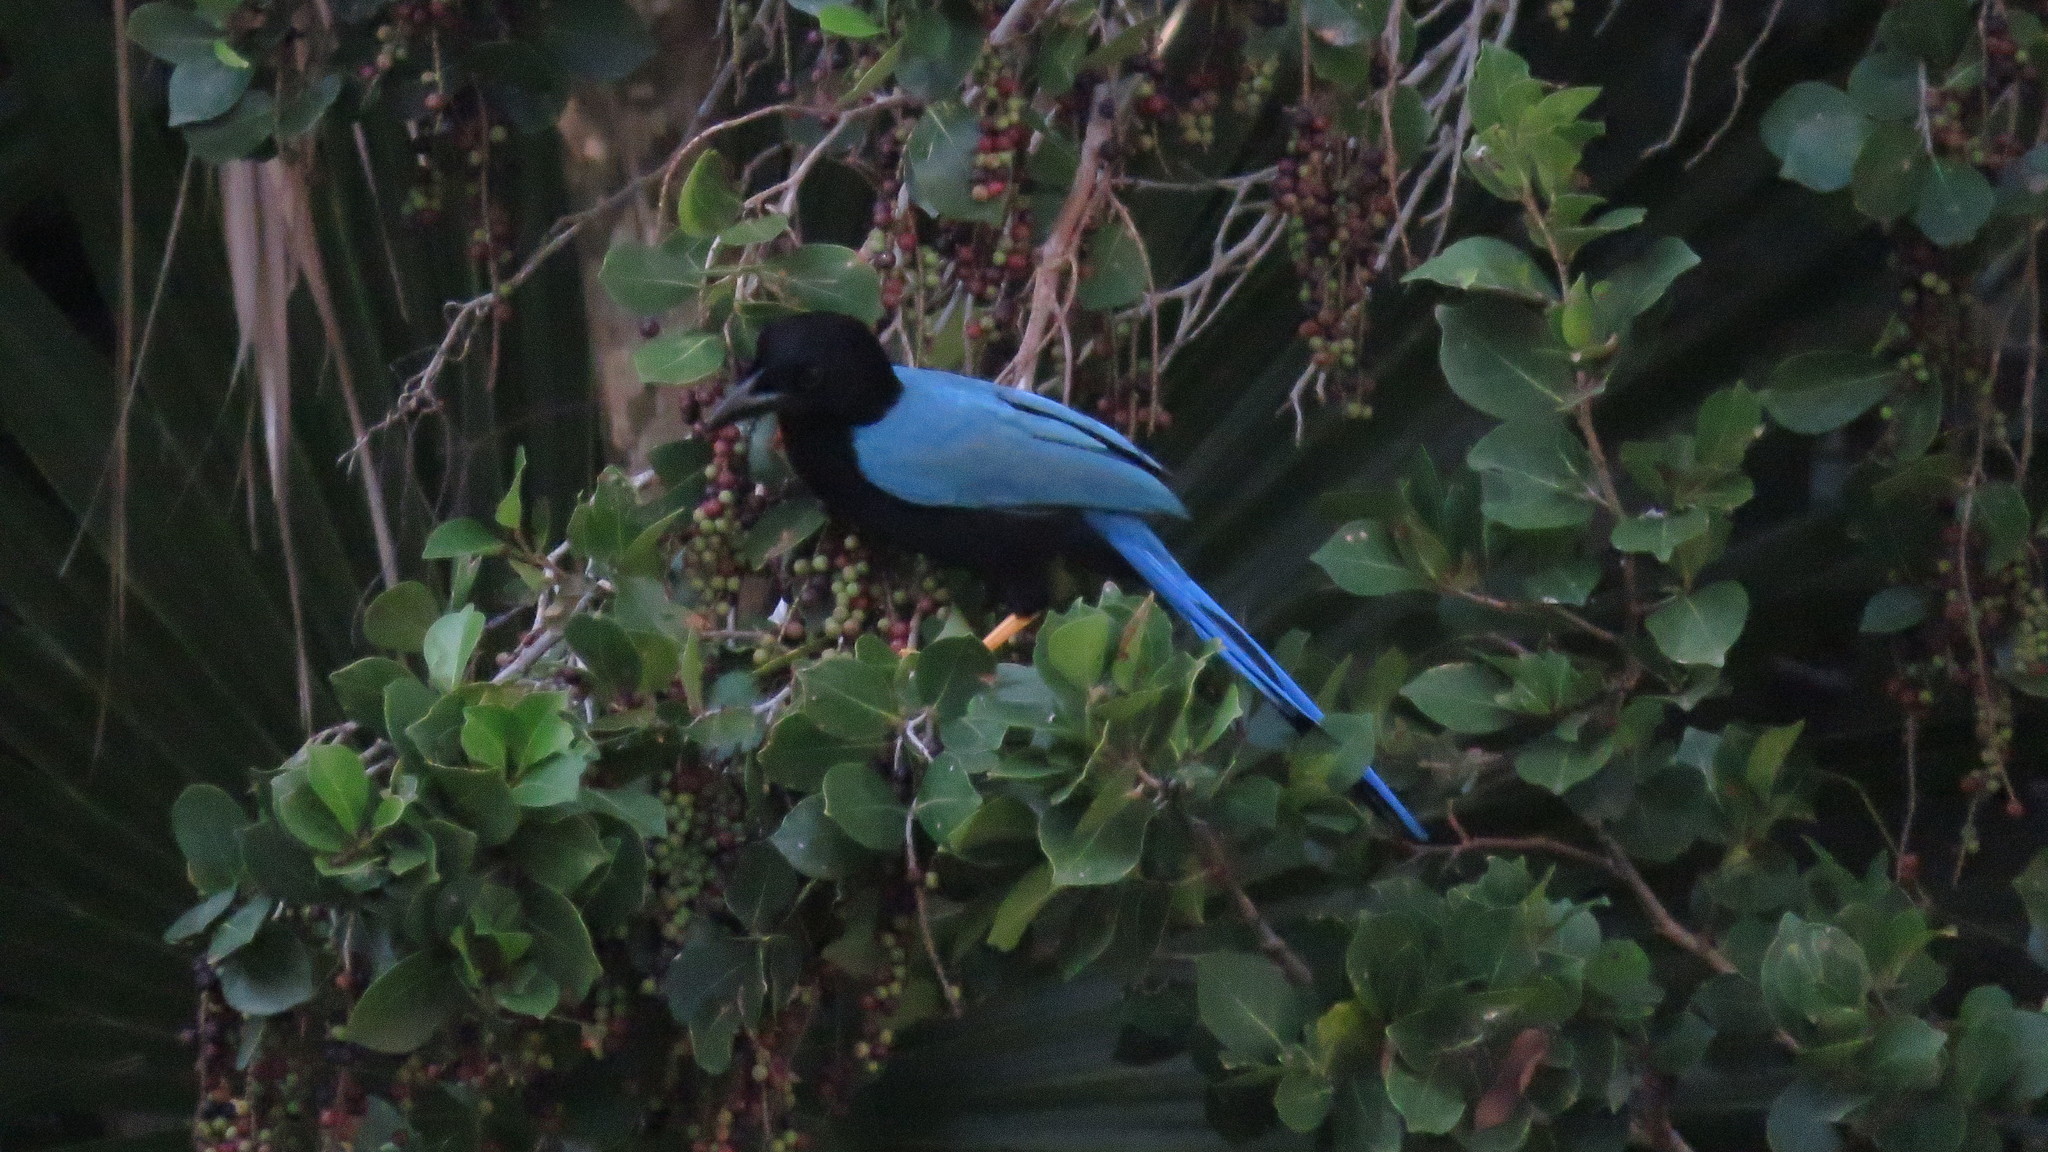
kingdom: Animalia
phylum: Chordata
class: Aves
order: Passeriformes
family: Corvidae
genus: Cyanocorax
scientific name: Cyanocorax yucatanicus
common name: Yucatan jay
